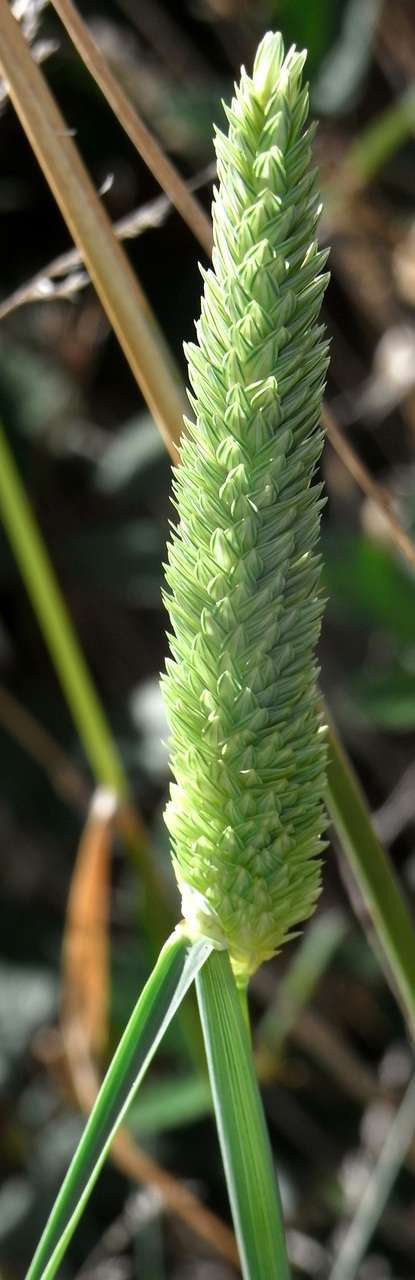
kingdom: Plantae
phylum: Tracheophyta
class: Liliopsida
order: Poales
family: Poaceae
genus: Phalaris
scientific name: Phalaris aquatica
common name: Bulbous canary-grass
